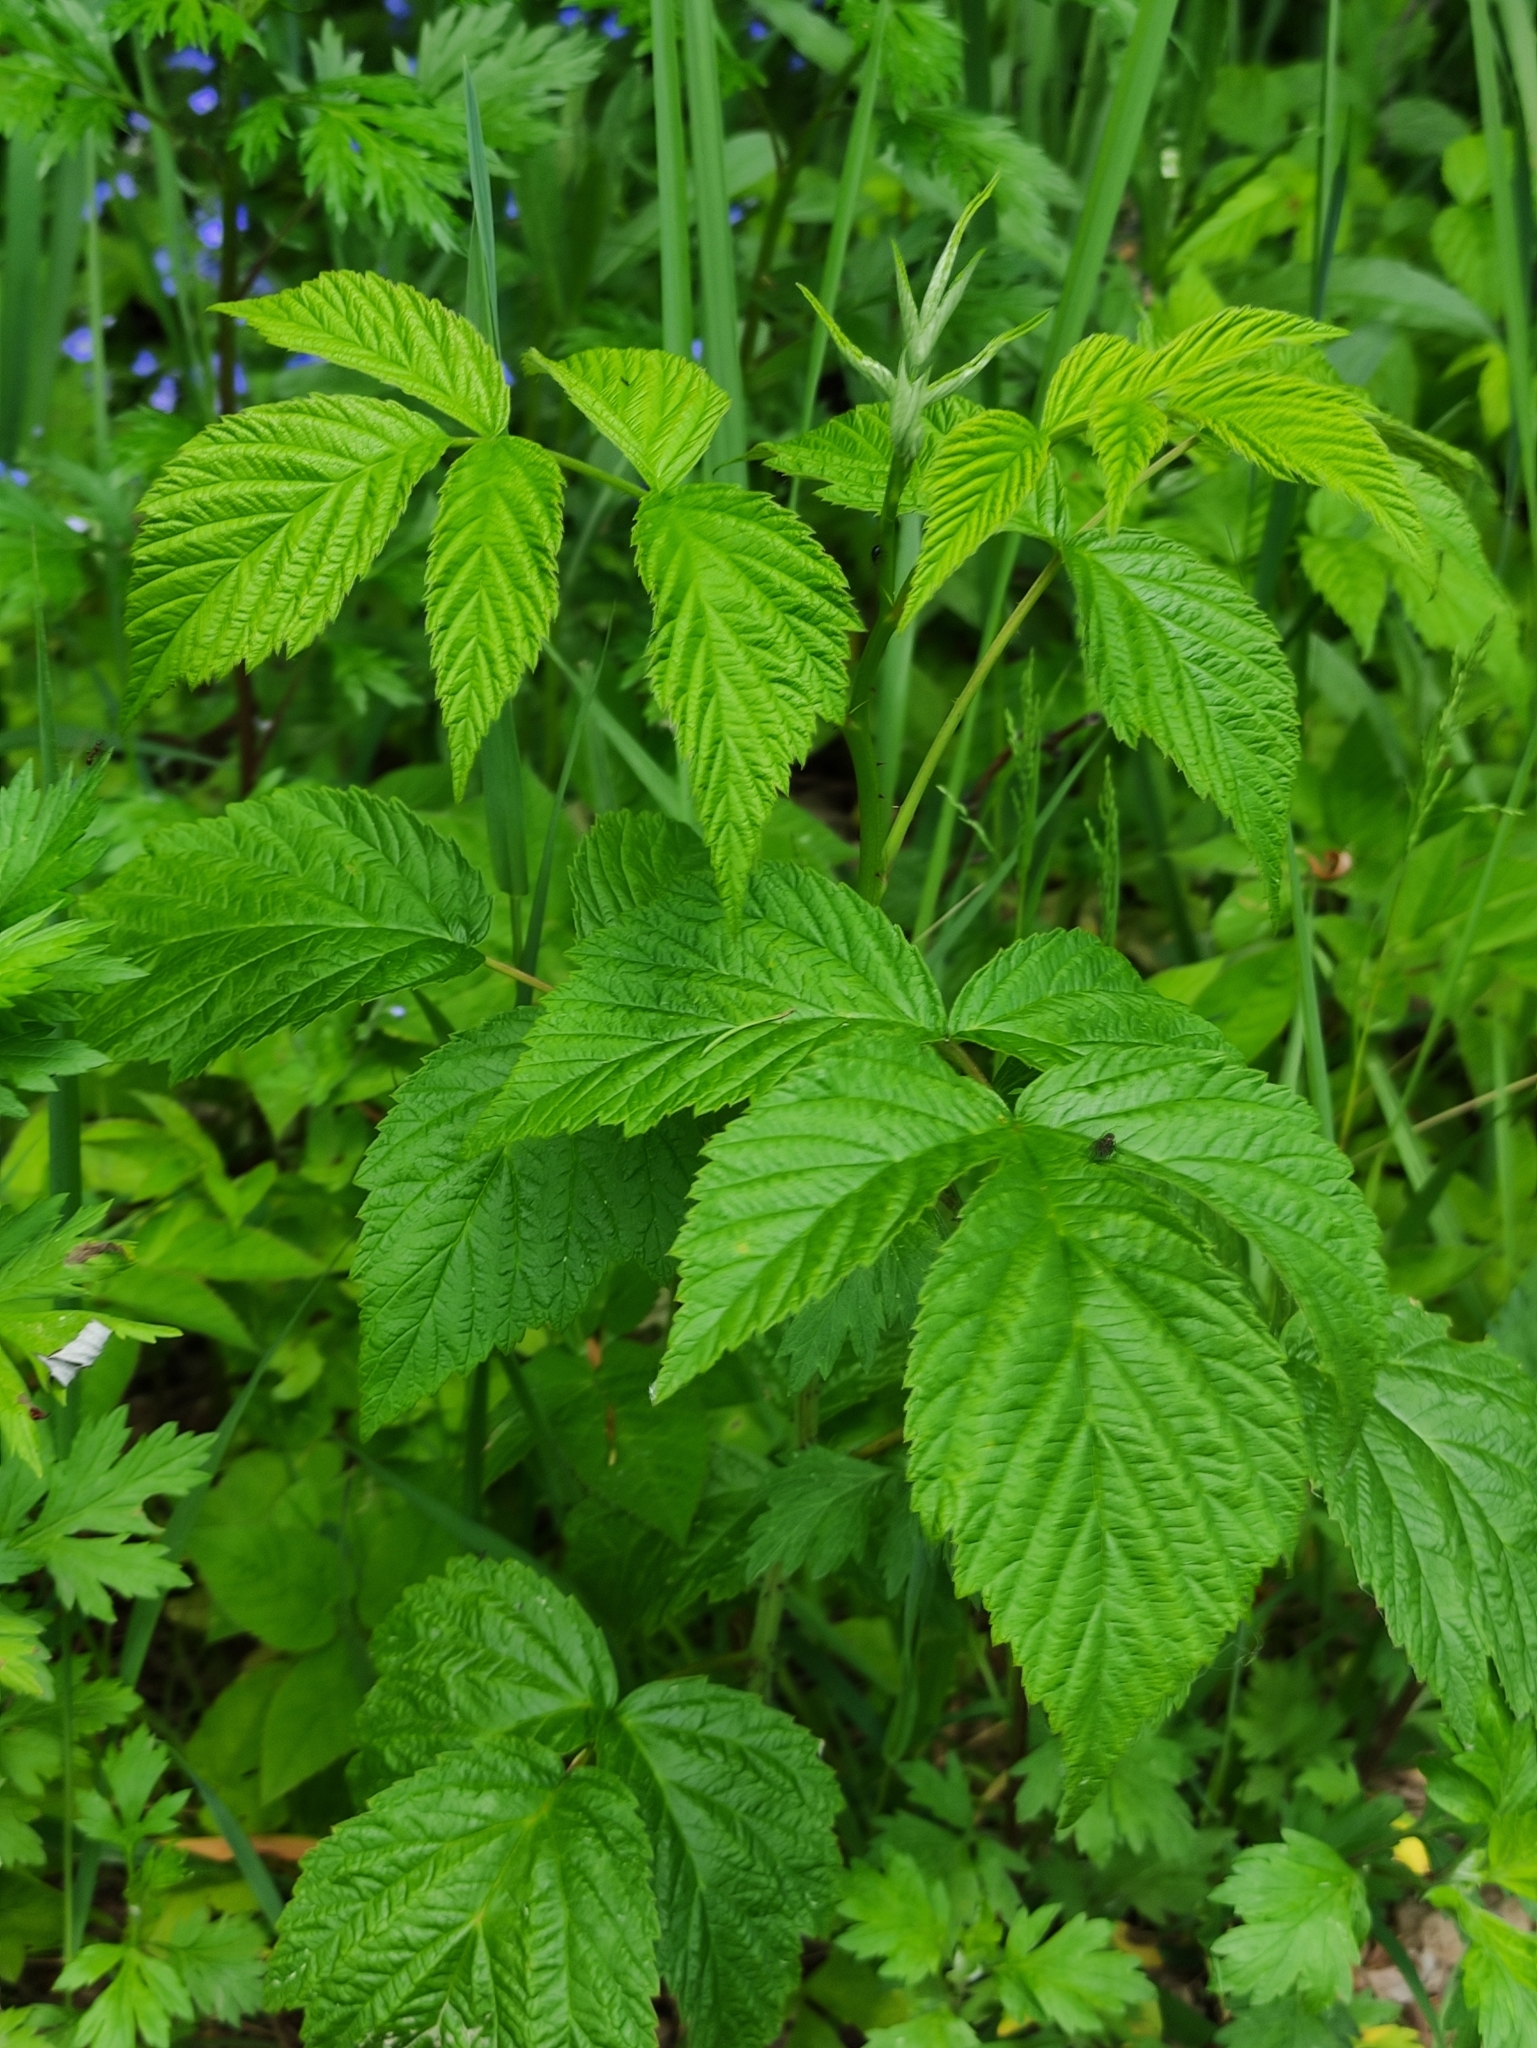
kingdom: Plantae
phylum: Tracheophyta
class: Magnoliopsida
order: Rosales
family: Rosaceae
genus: Rubus
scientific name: Rubus idaeus
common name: Raspberry
